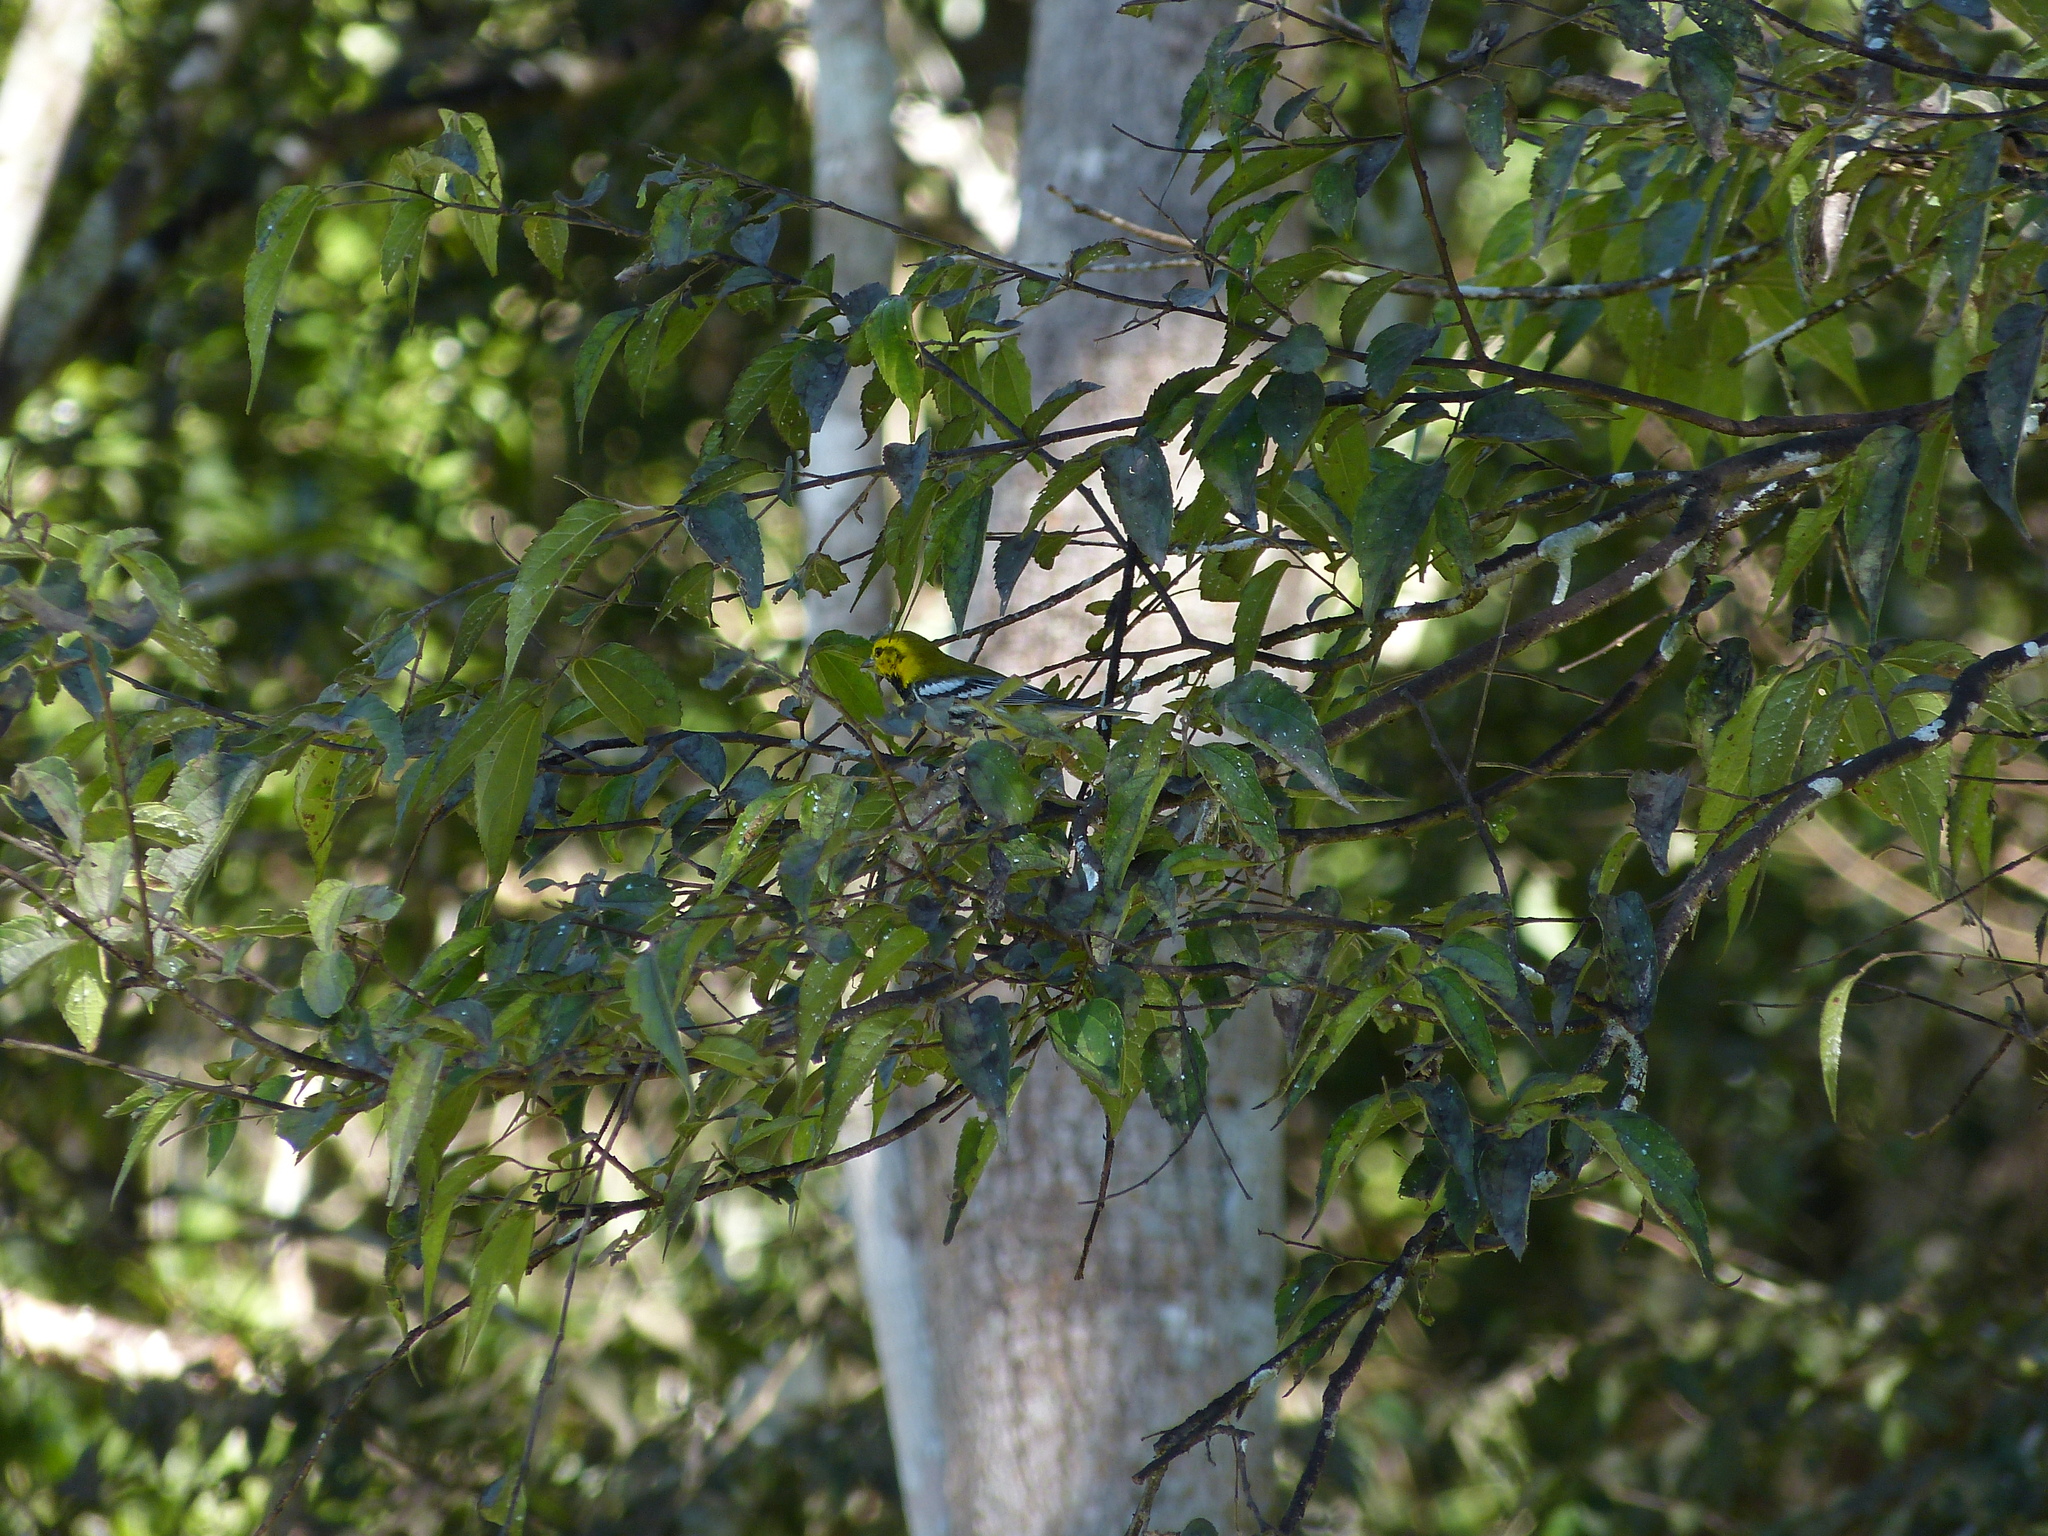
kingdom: Animalia
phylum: Chordata
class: Aves
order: Passeriformes
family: Parulidae
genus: Setophaga
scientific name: Setophaga virens
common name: Black-throated green warbler
